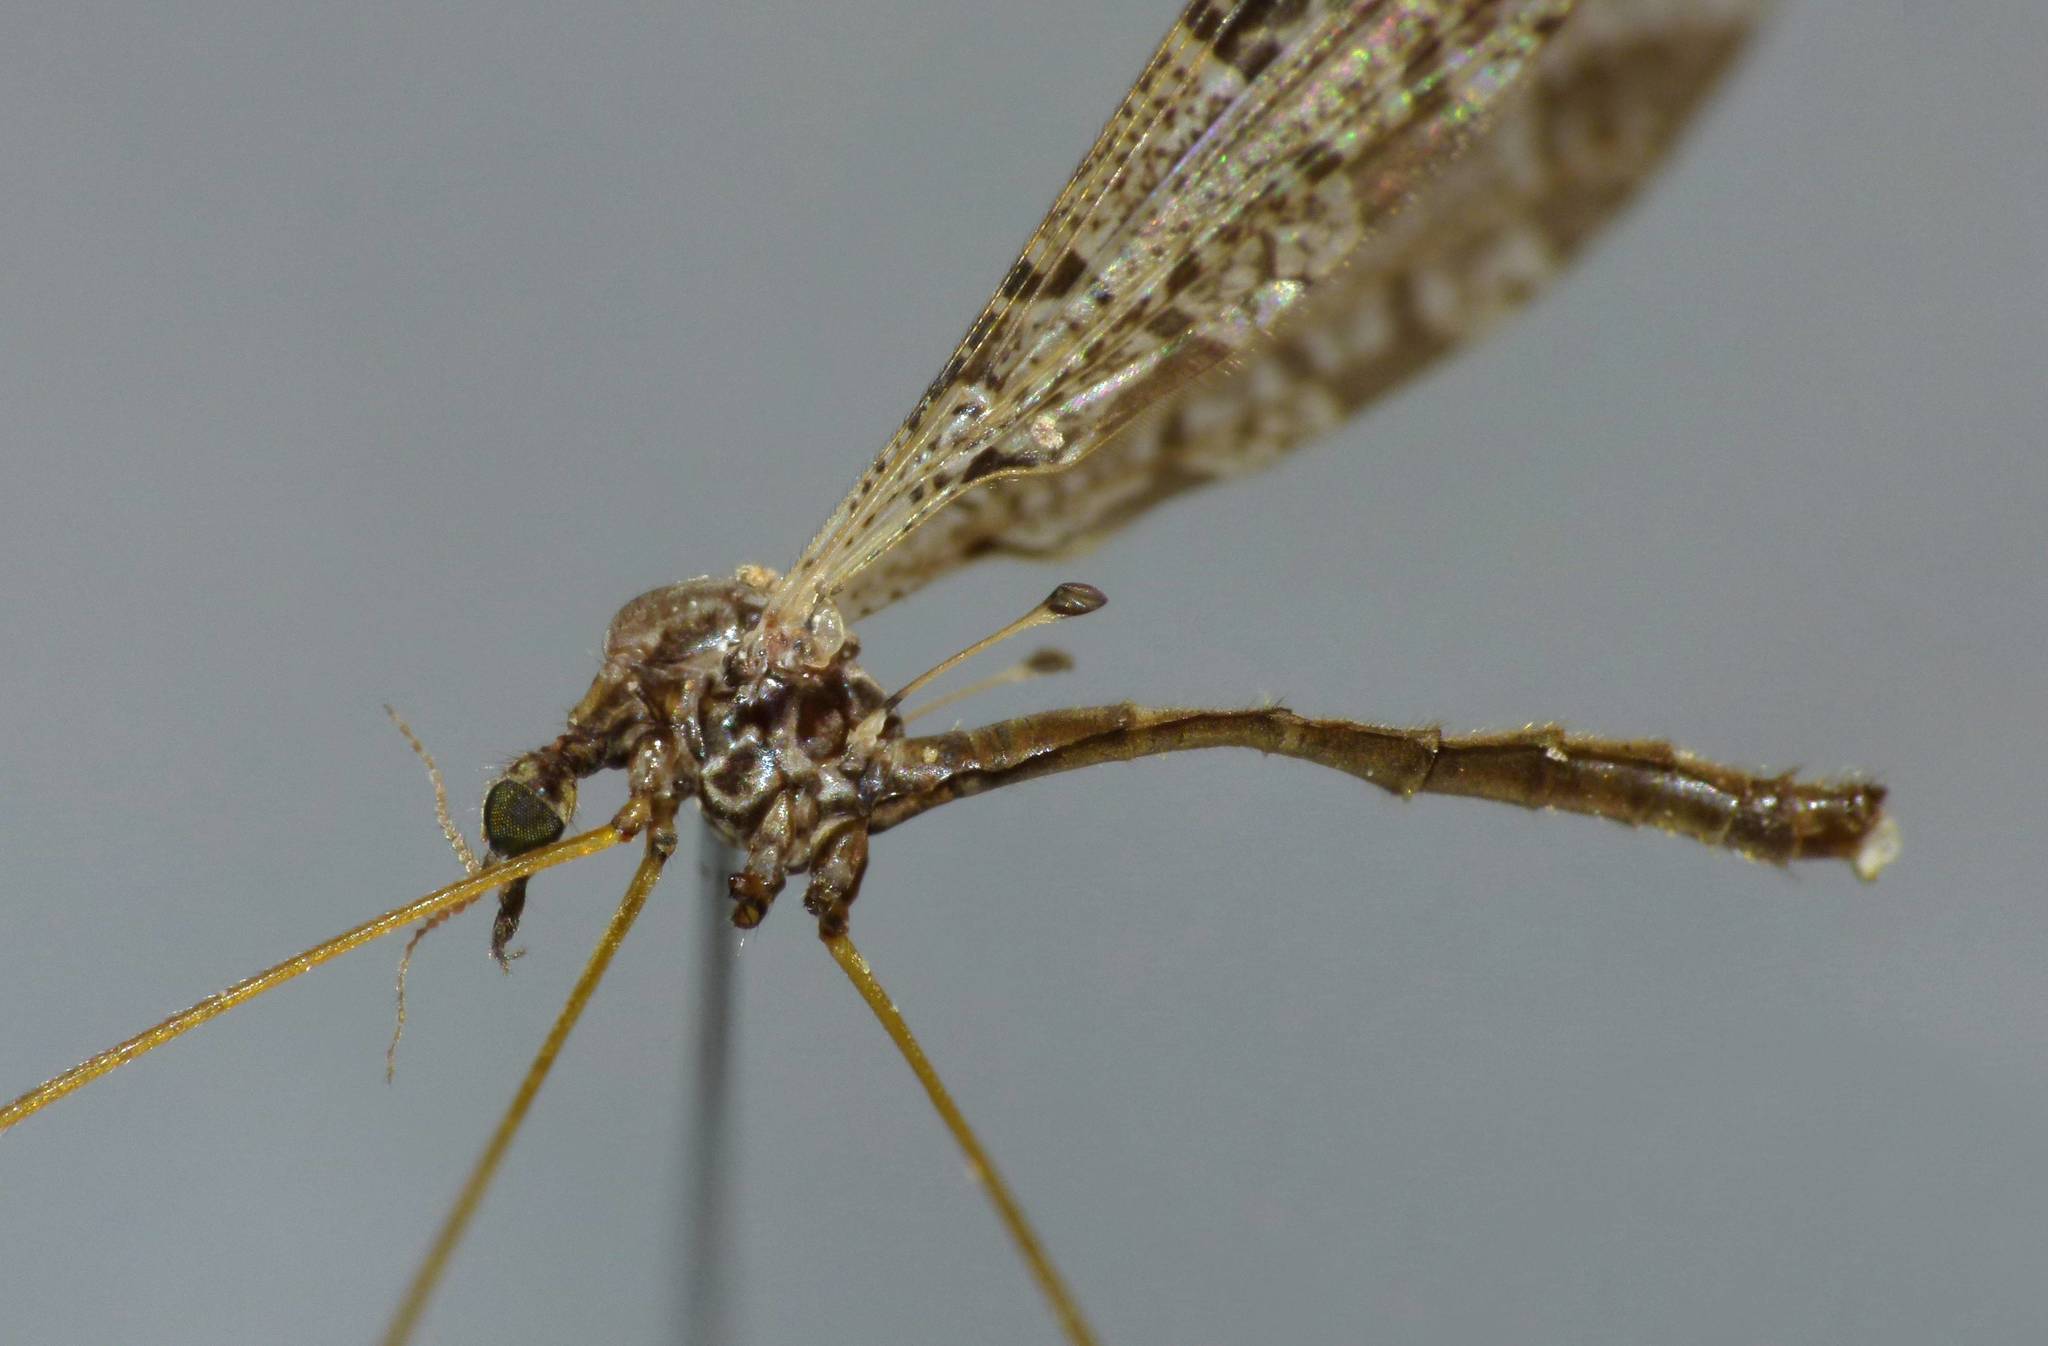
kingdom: Animalia
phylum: Arthropoda
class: Insecta
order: Diptera
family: Limoniidae
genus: Discobola
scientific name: Discobola venustula
